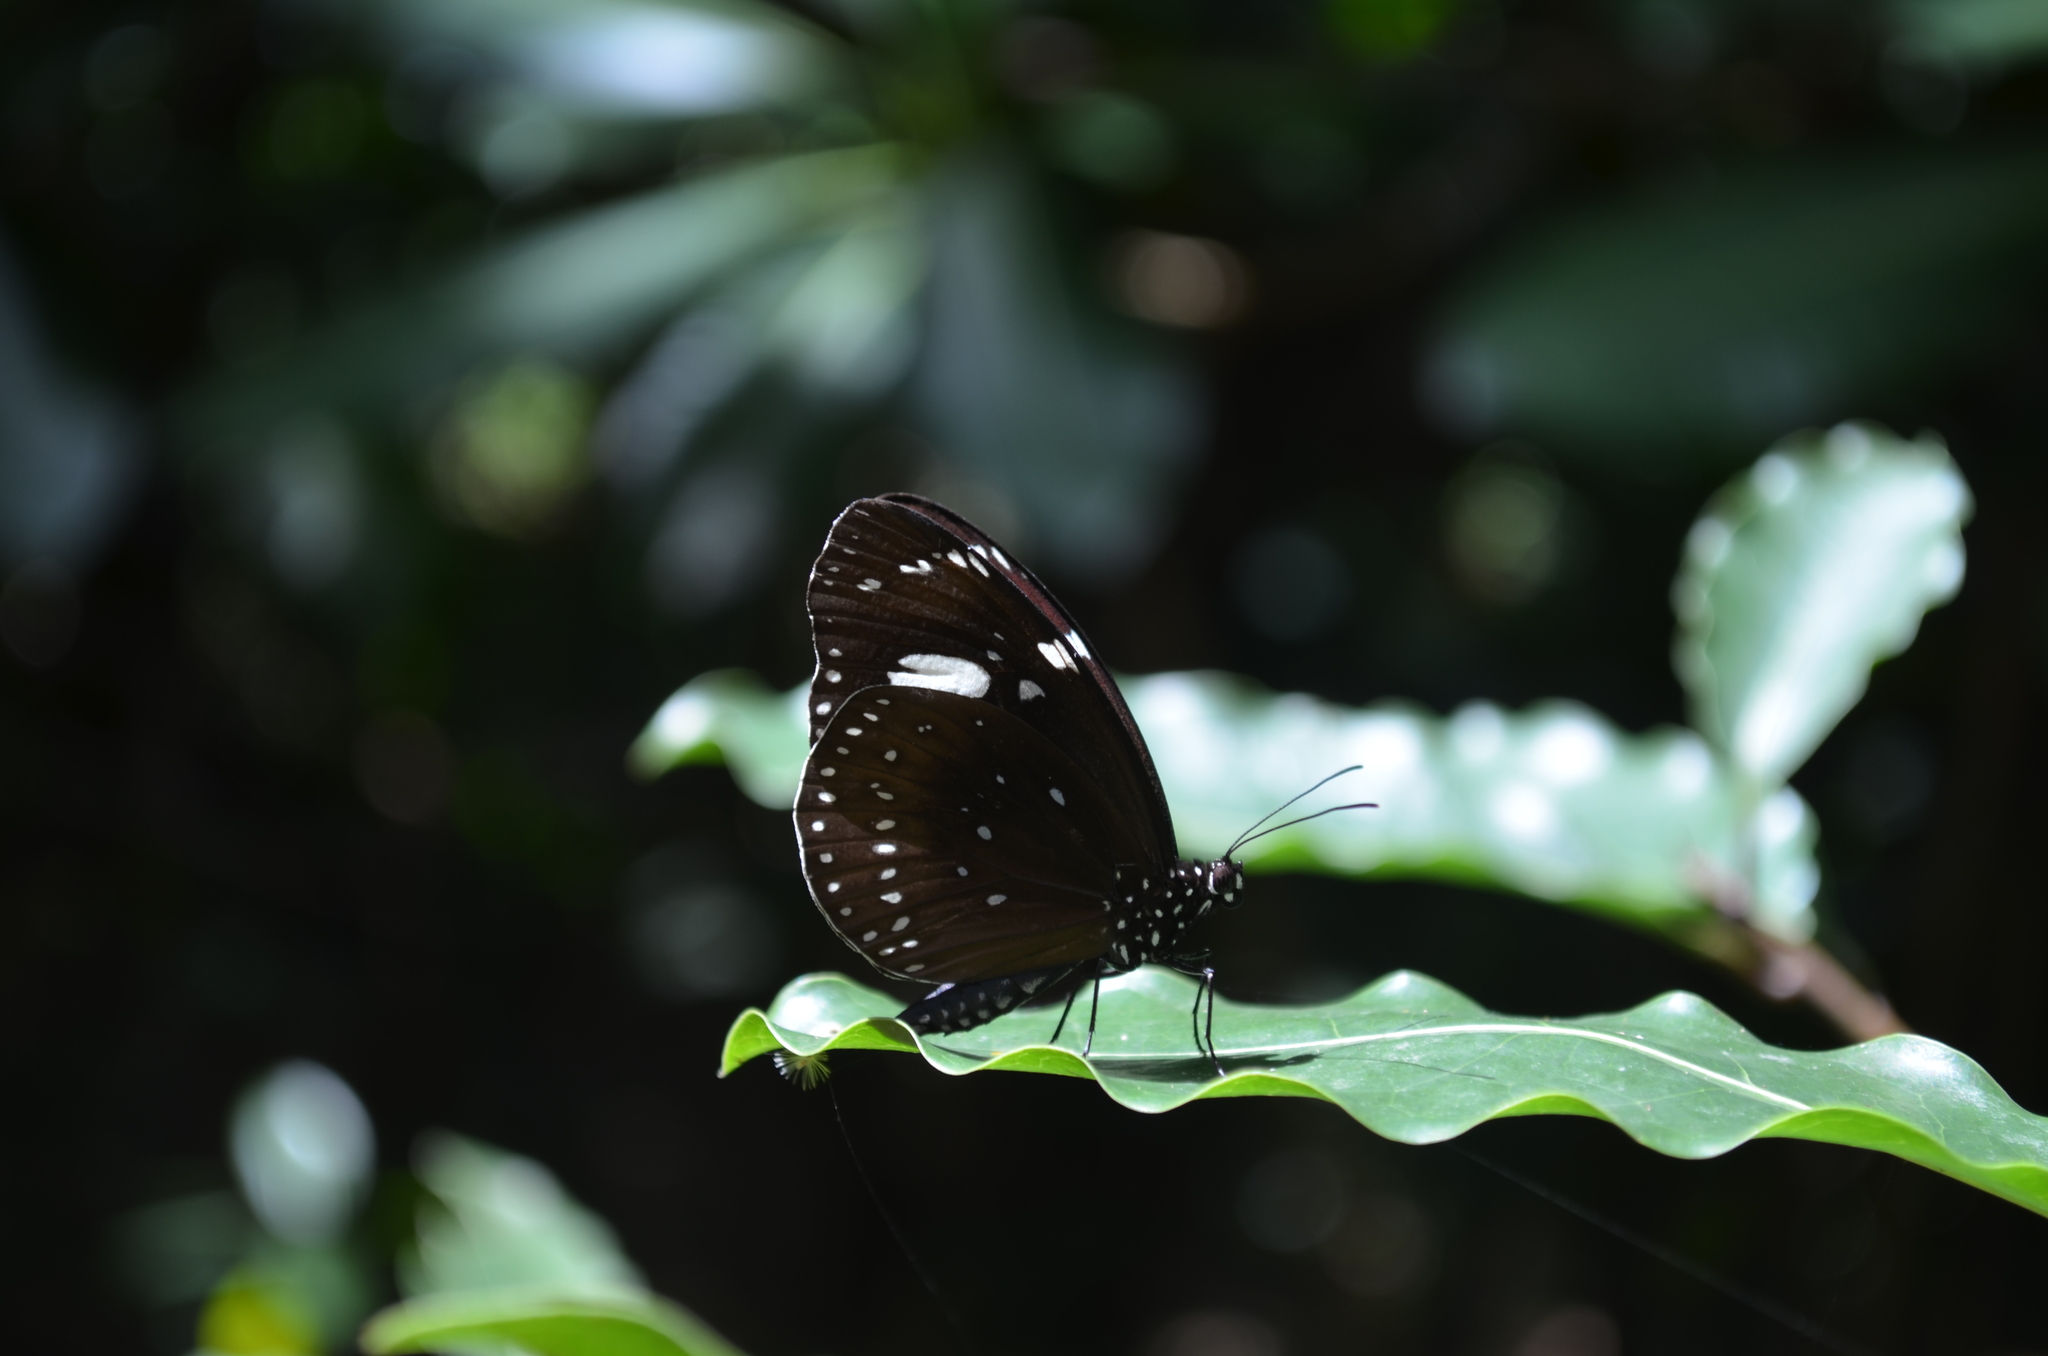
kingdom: Animalia
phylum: Arthropoda
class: Insecta
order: Lepidoptera
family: Nymphalidae
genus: Euploea
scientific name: Euploea lewinii
